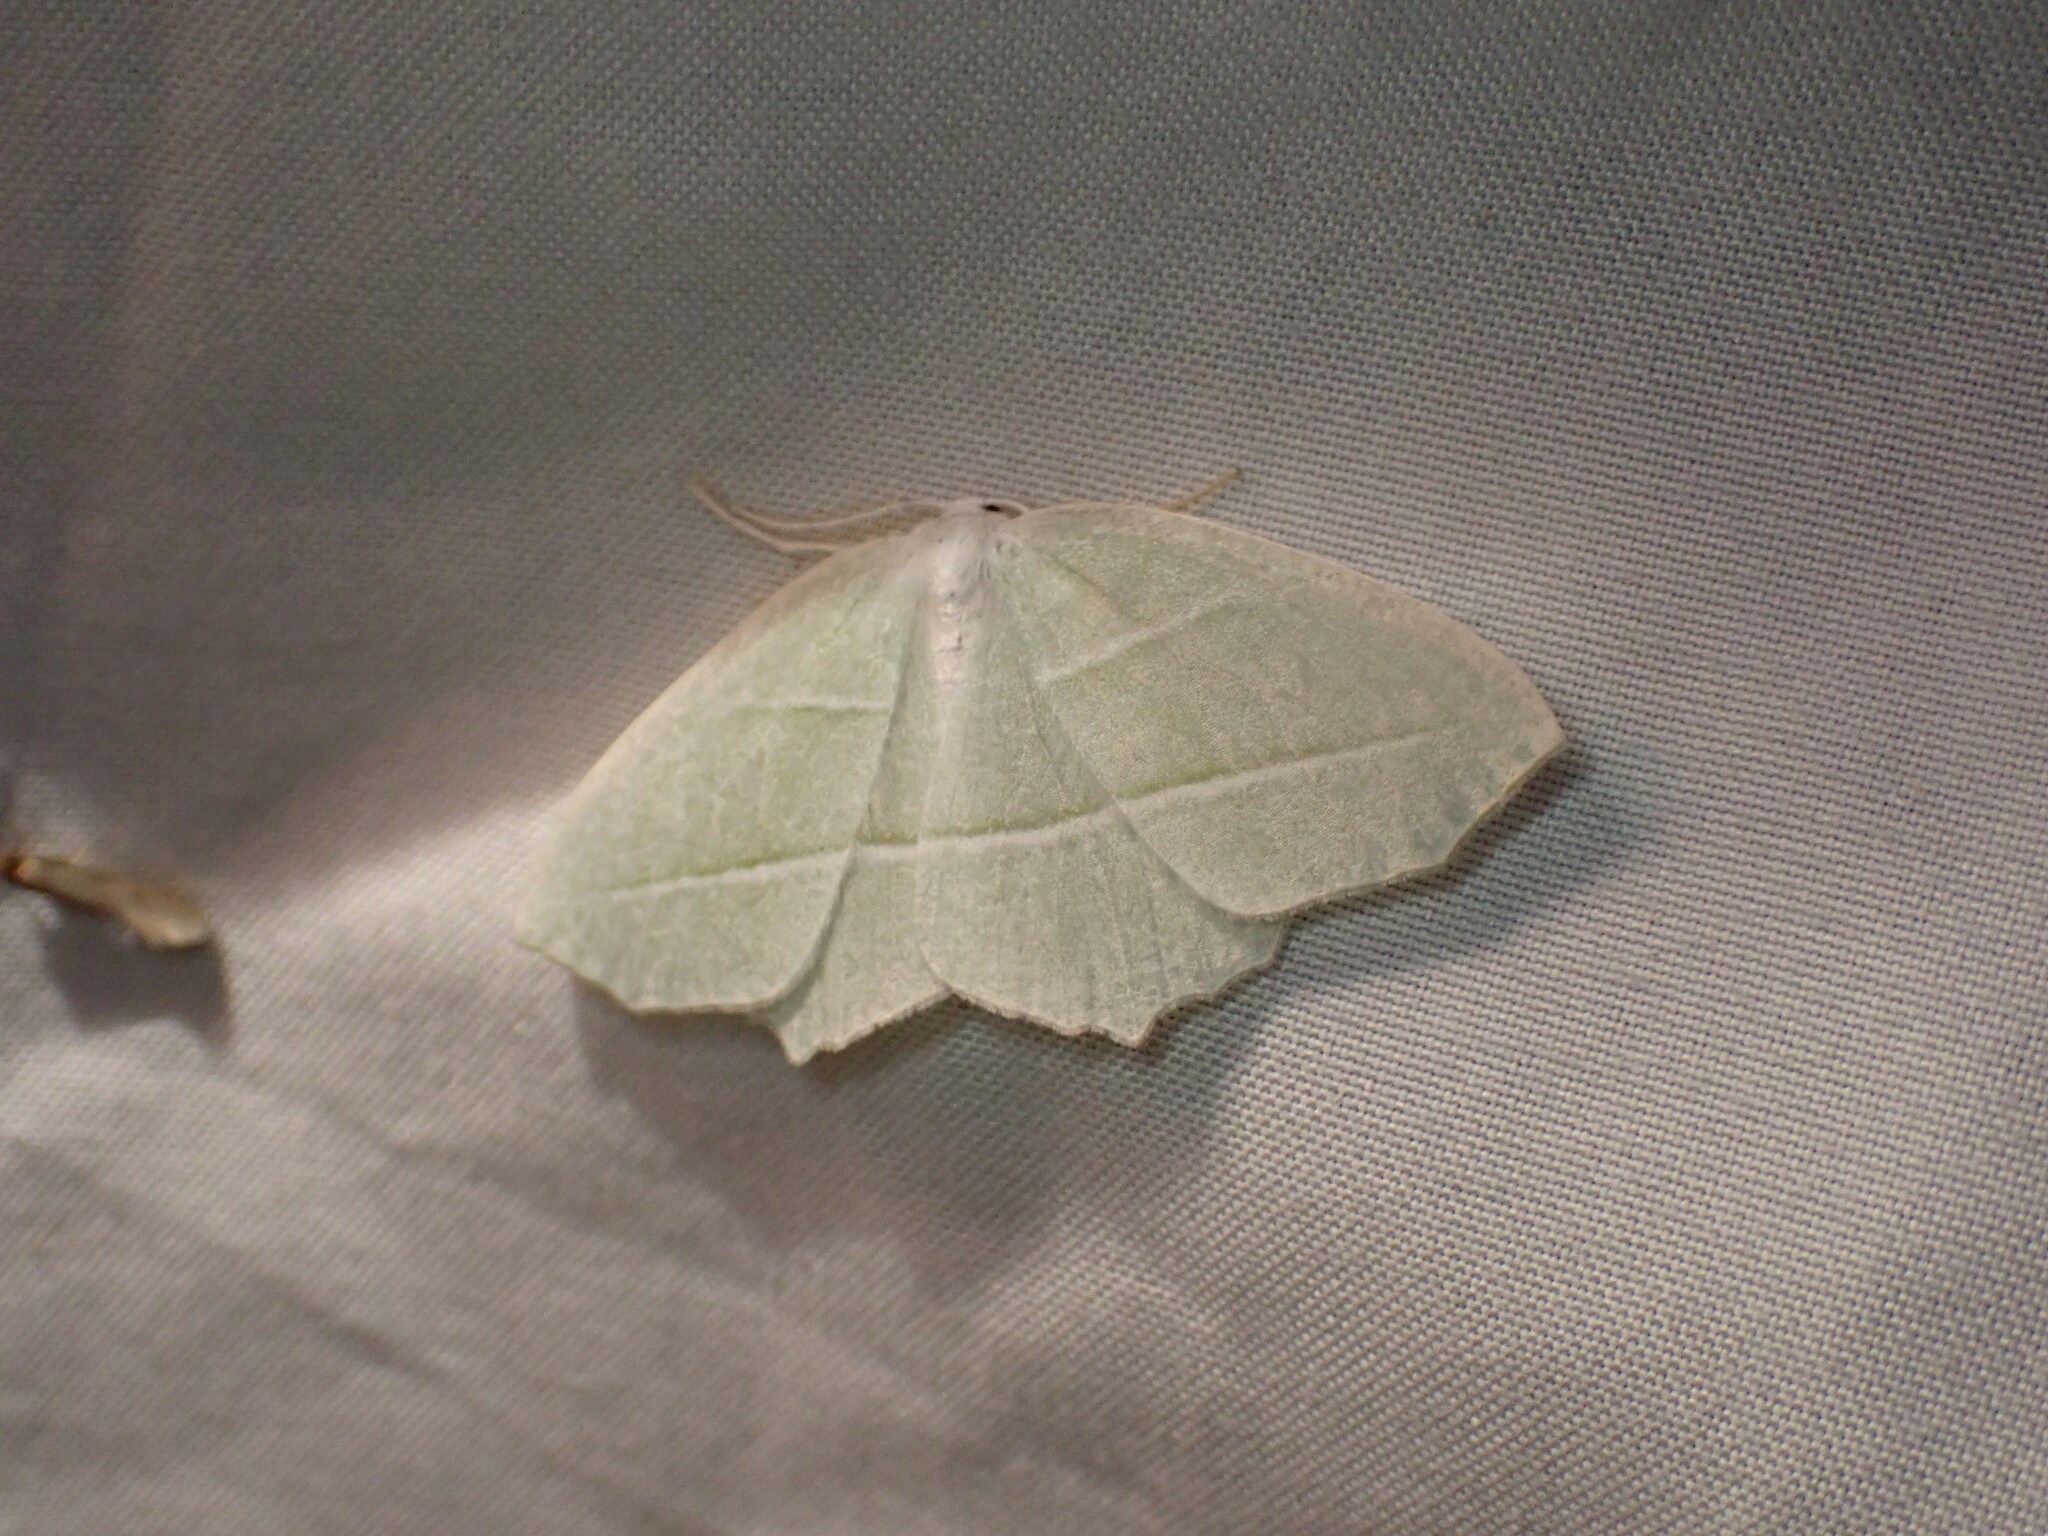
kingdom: Animalia
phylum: Arthropoda
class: Insecta
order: Lepidoptera
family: Geometridae
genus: Campaea
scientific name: Campaea perlata
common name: Fringed looper
